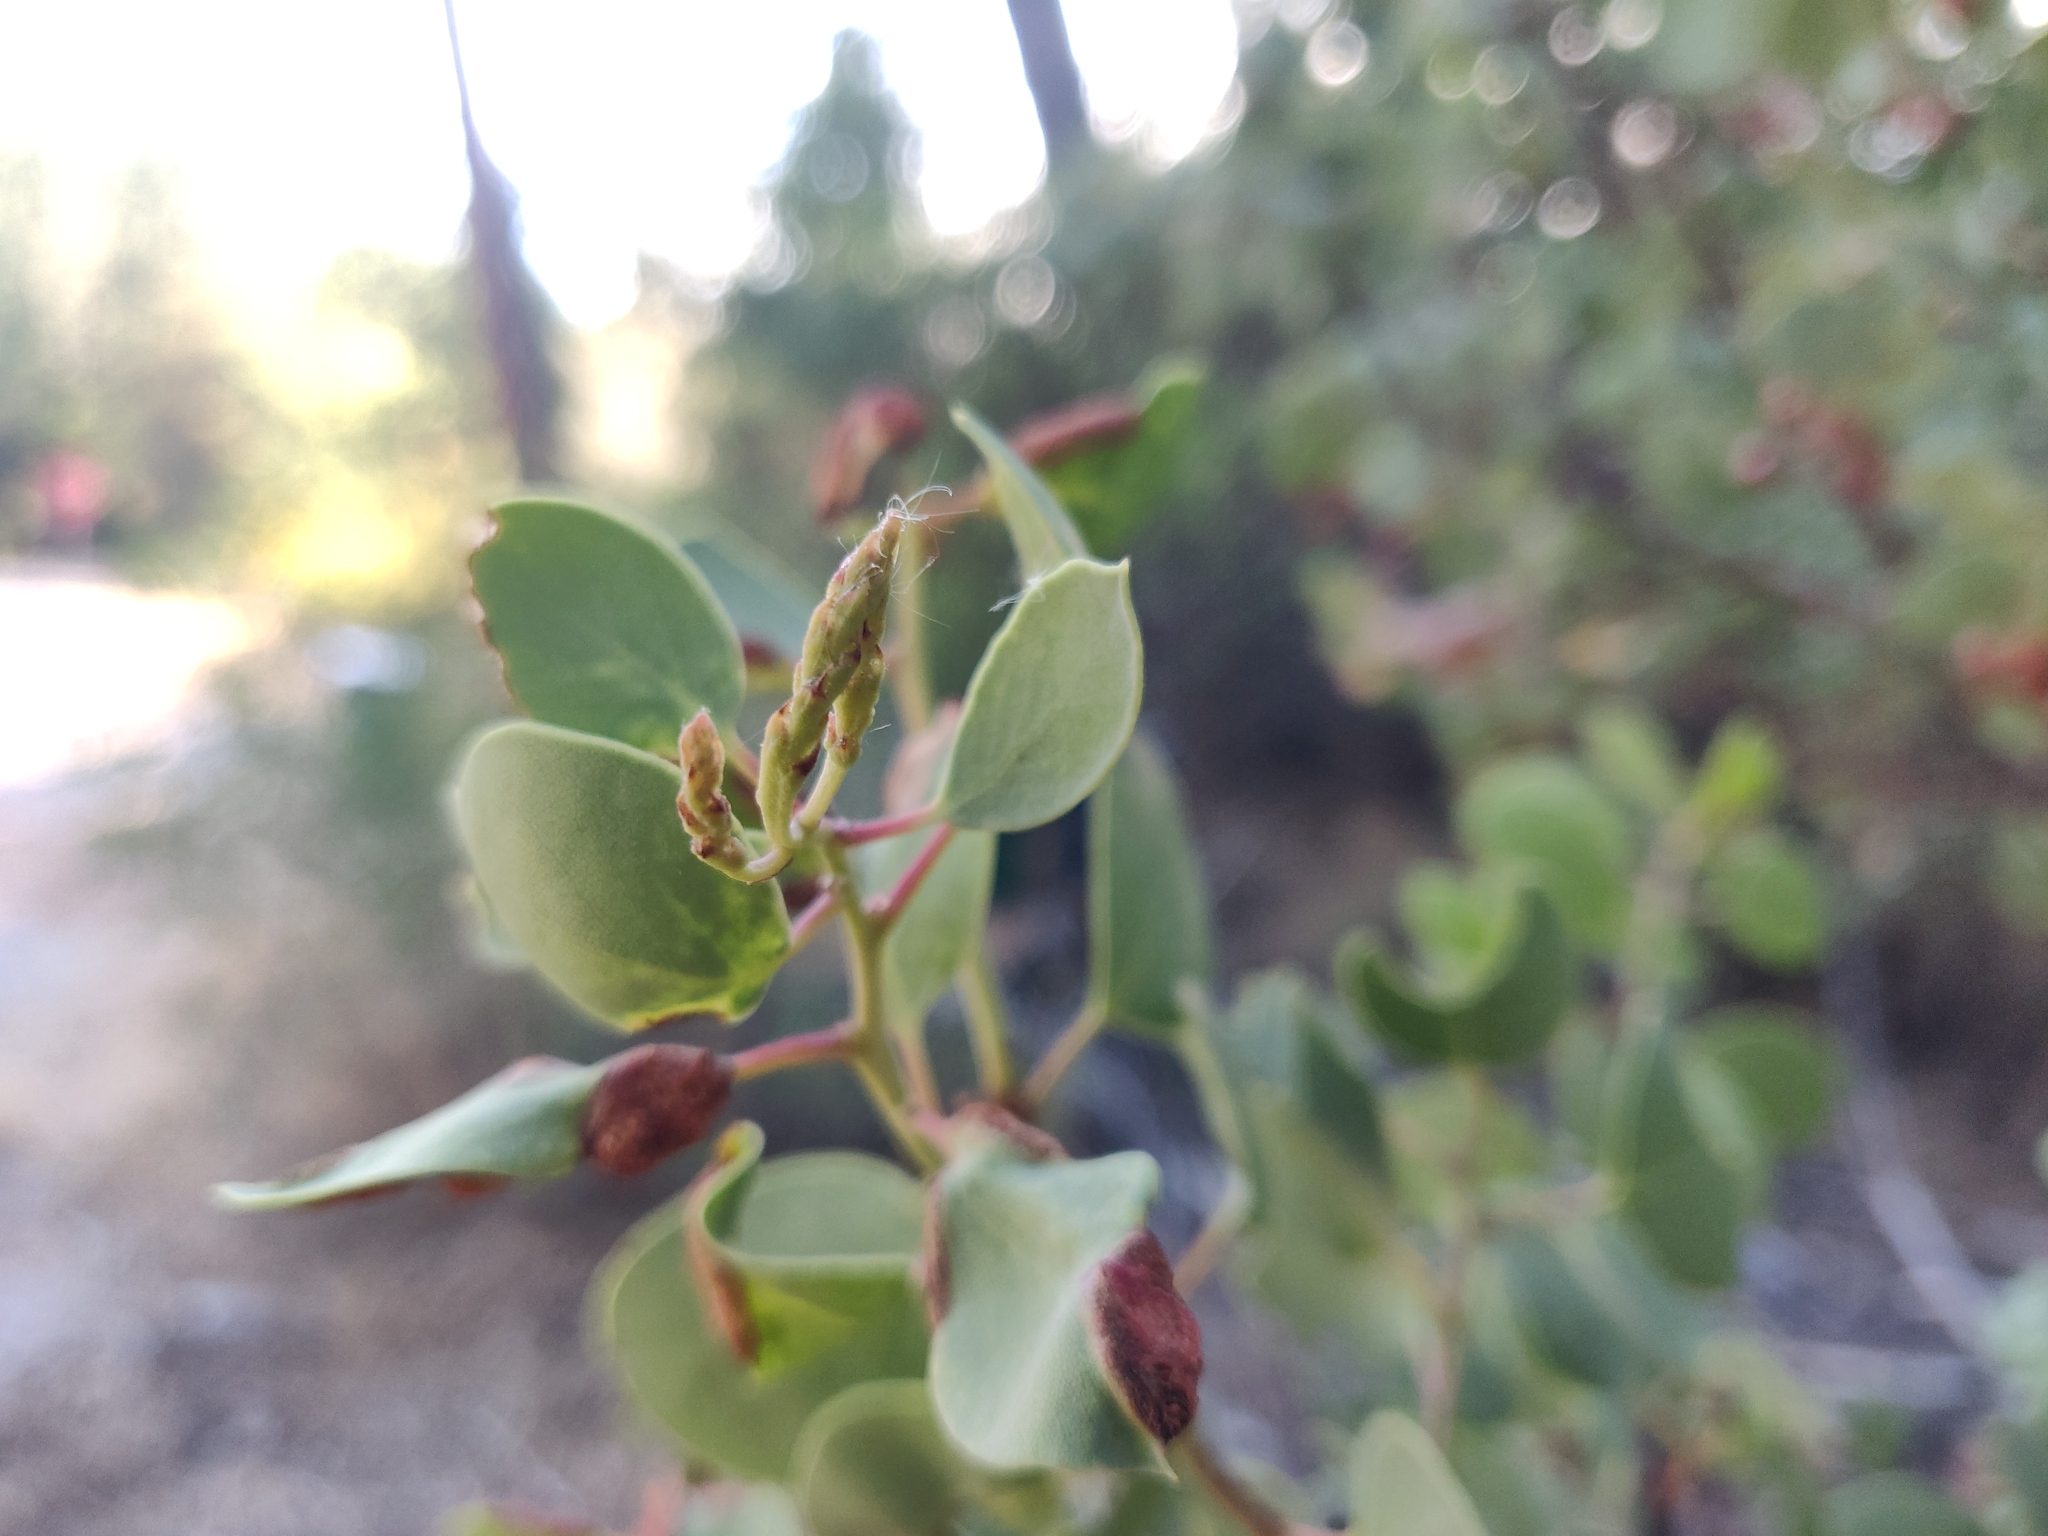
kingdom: Plantae
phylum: Tracheophyta
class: Magnoliopsida
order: Ericales
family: Ericaceae
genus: Arctostaphylos
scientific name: Arctostaphylos viscida
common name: White-leaf manzanita
